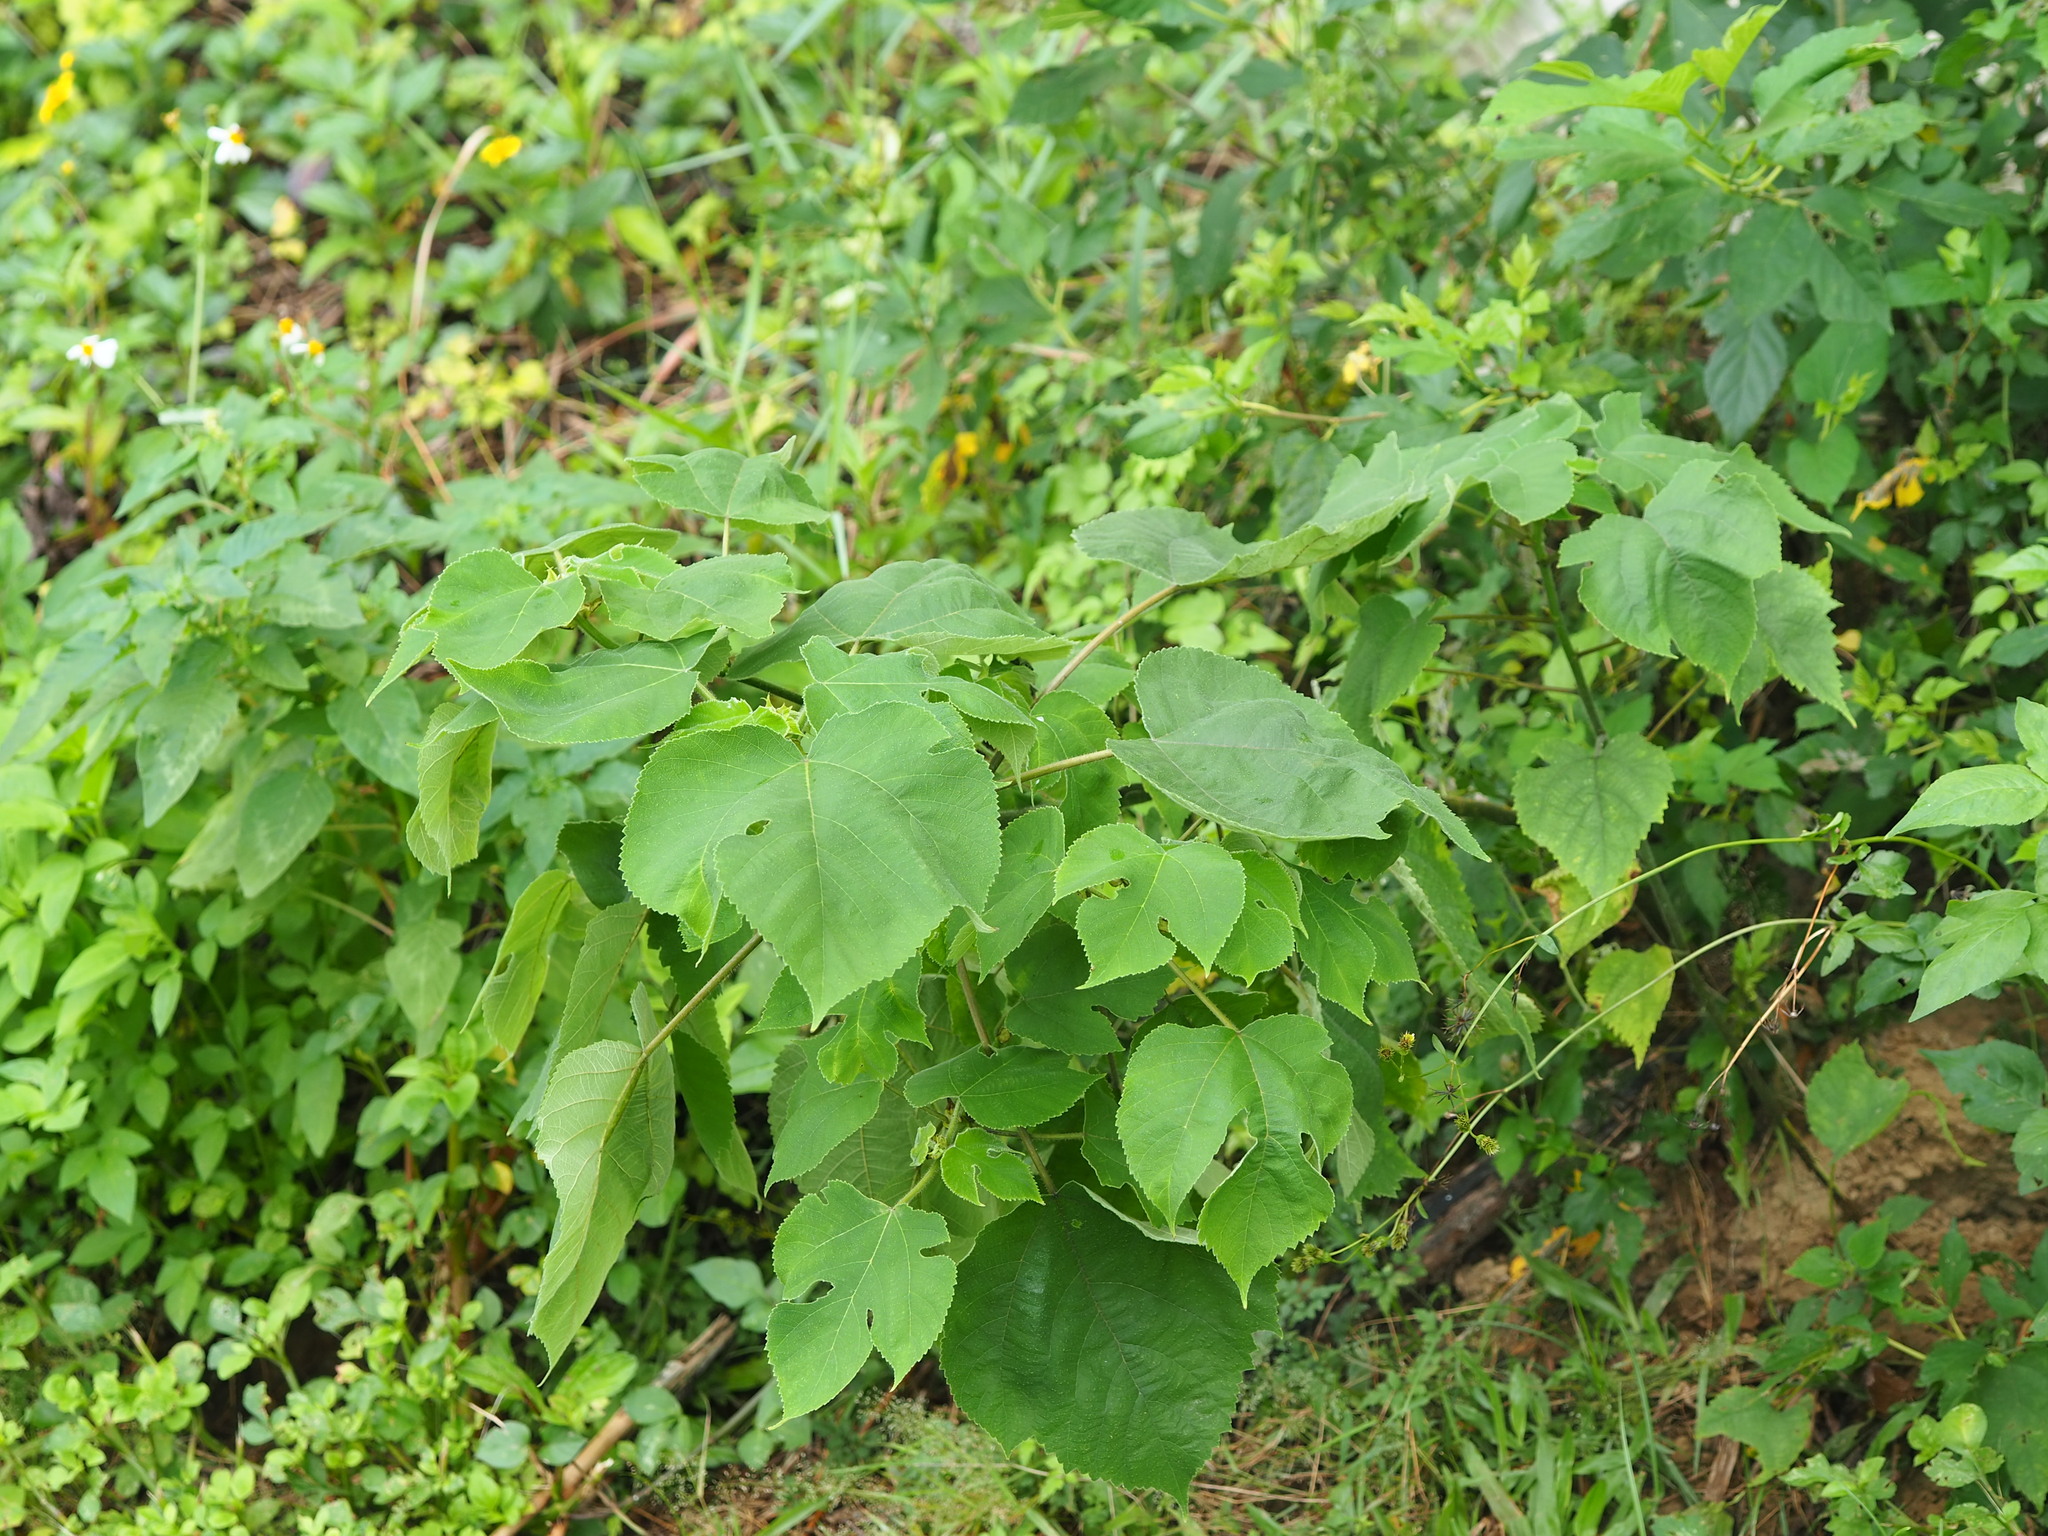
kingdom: Plantae
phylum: Tracheophyta
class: Magnoliopsida
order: Rosales
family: Moraceae
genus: Broussonetia
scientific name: Broussonetia papyrifera
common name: Paper mulberry
